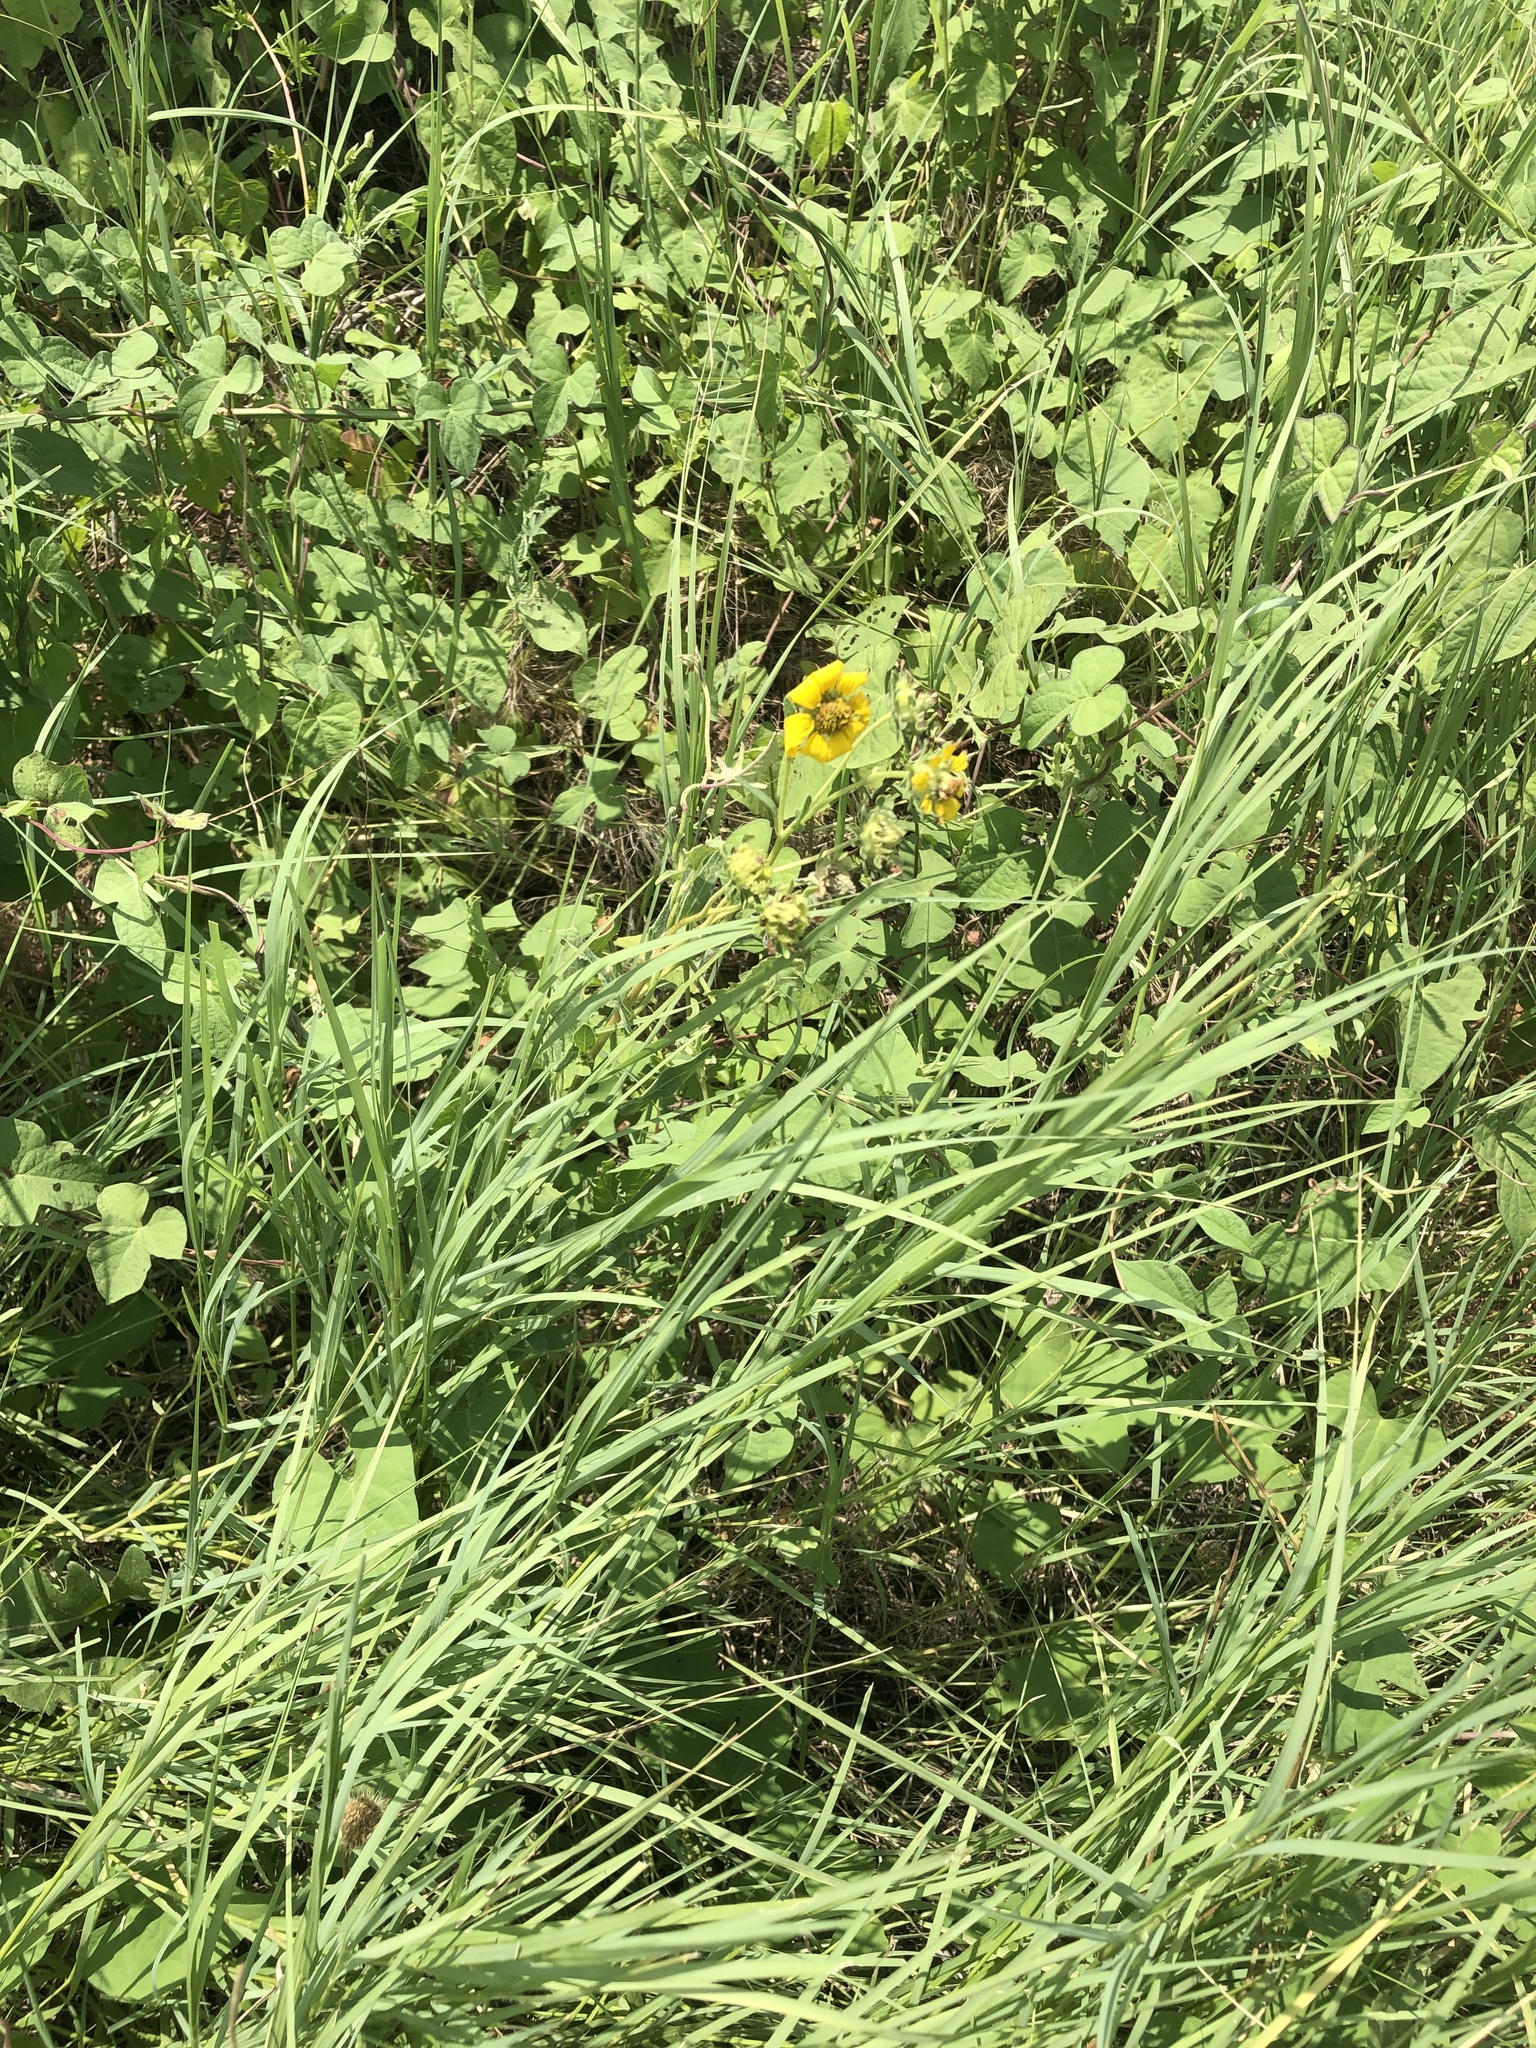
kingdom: Plantae
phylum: Tracheophyta
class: Magnoliopsida
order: Asterales
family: Asteraceae
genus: Engelmannia
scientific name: Engelmannia peristenia
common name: Engelmann's daisy
